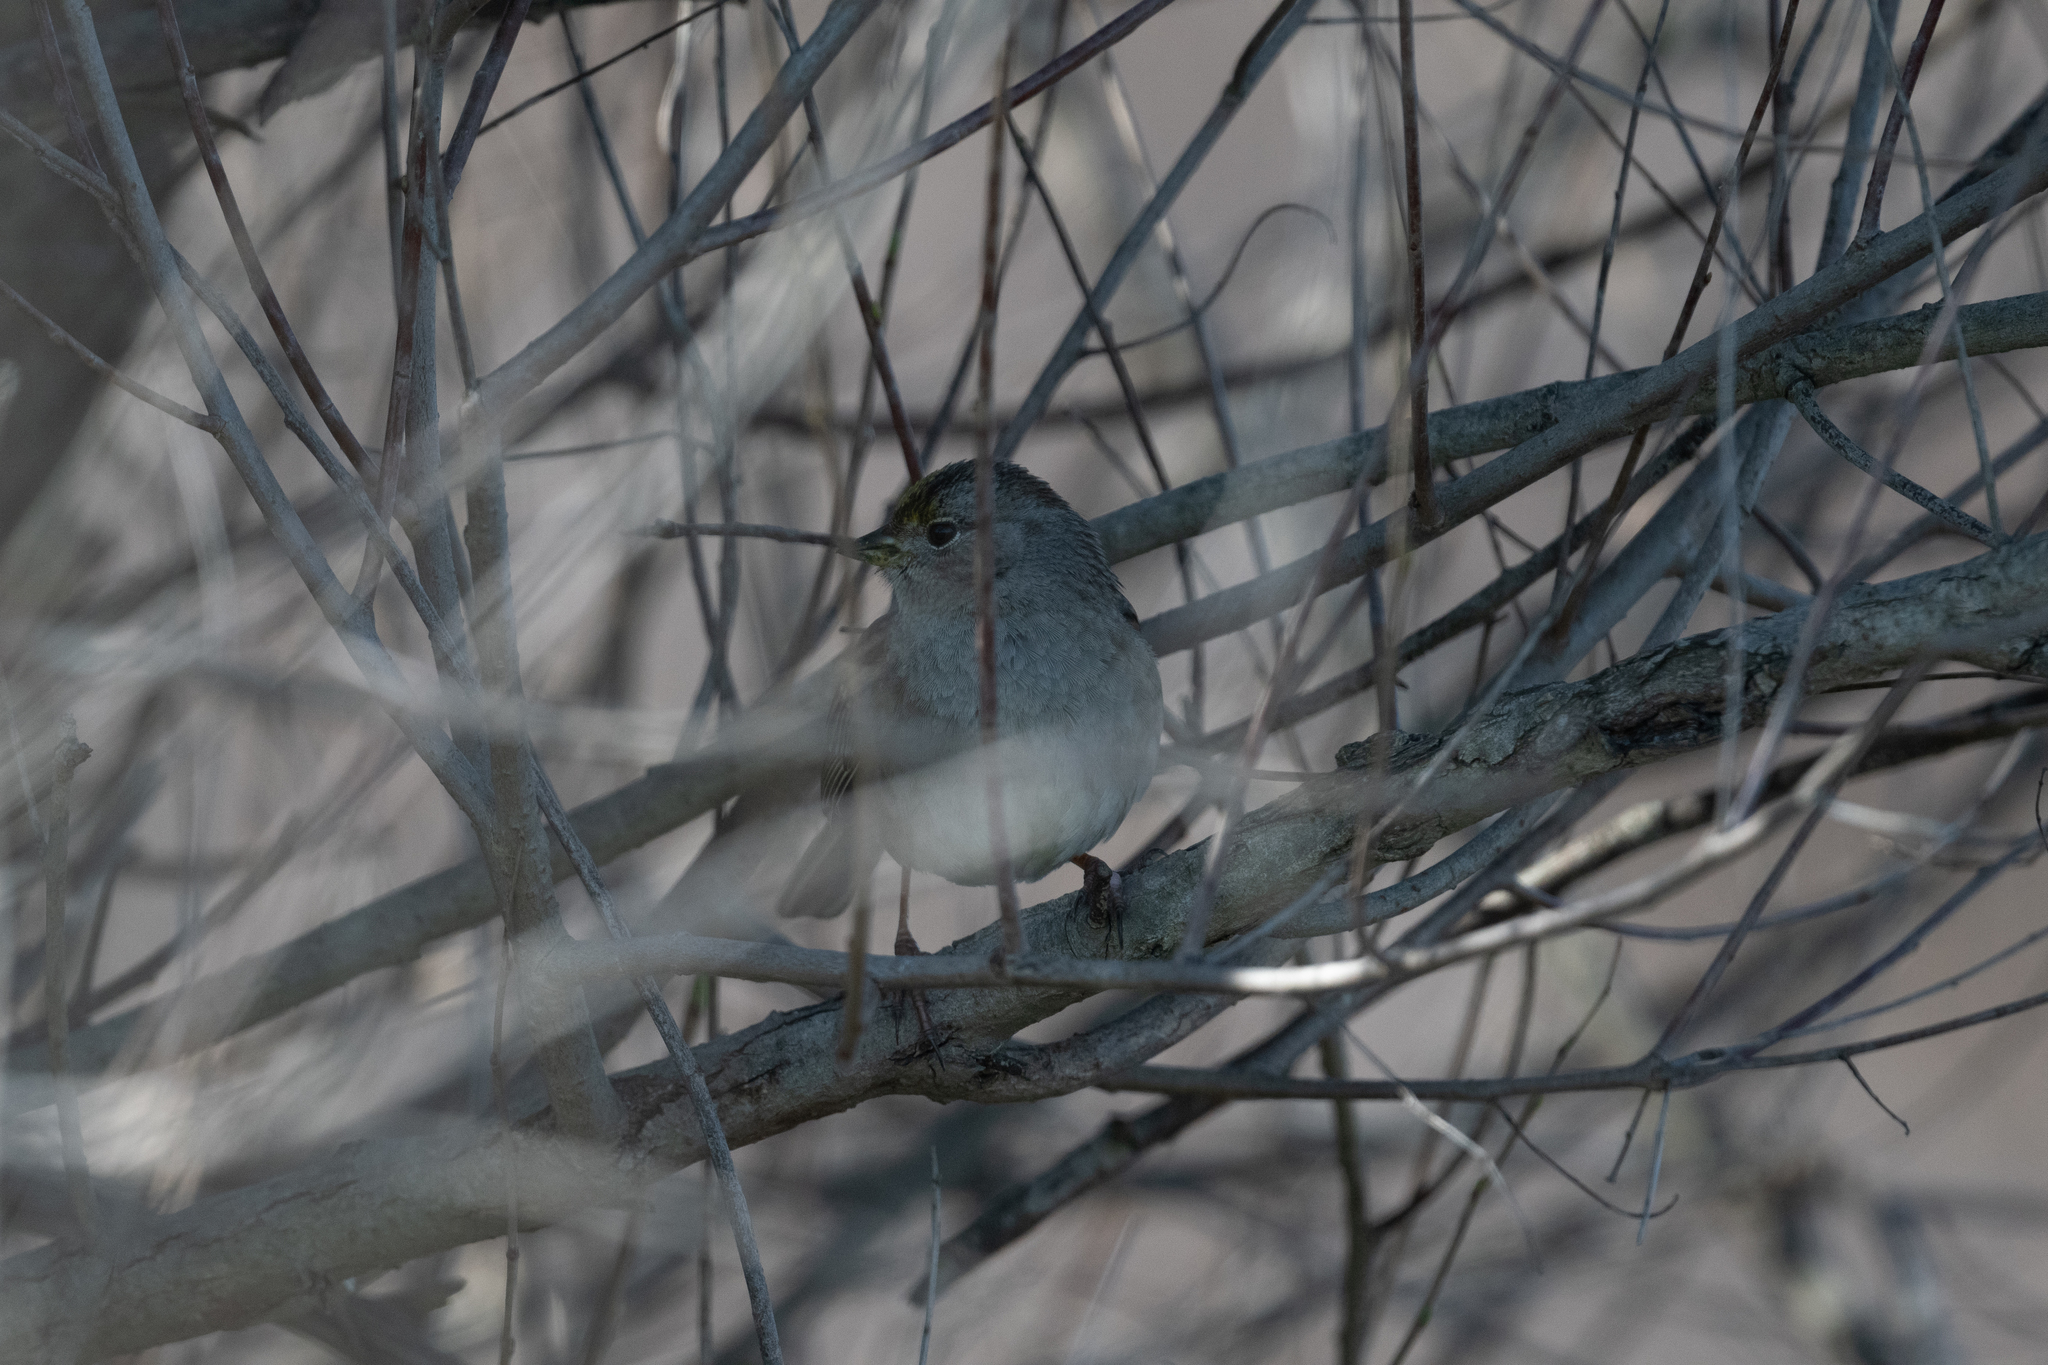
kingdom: Animalia
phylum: Chordata
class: Aves
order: Passeriformes
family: Passerellidae
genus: Zonotrichia
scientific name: Zonotrichia atricapilla
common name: Golden-crowned sparrow
